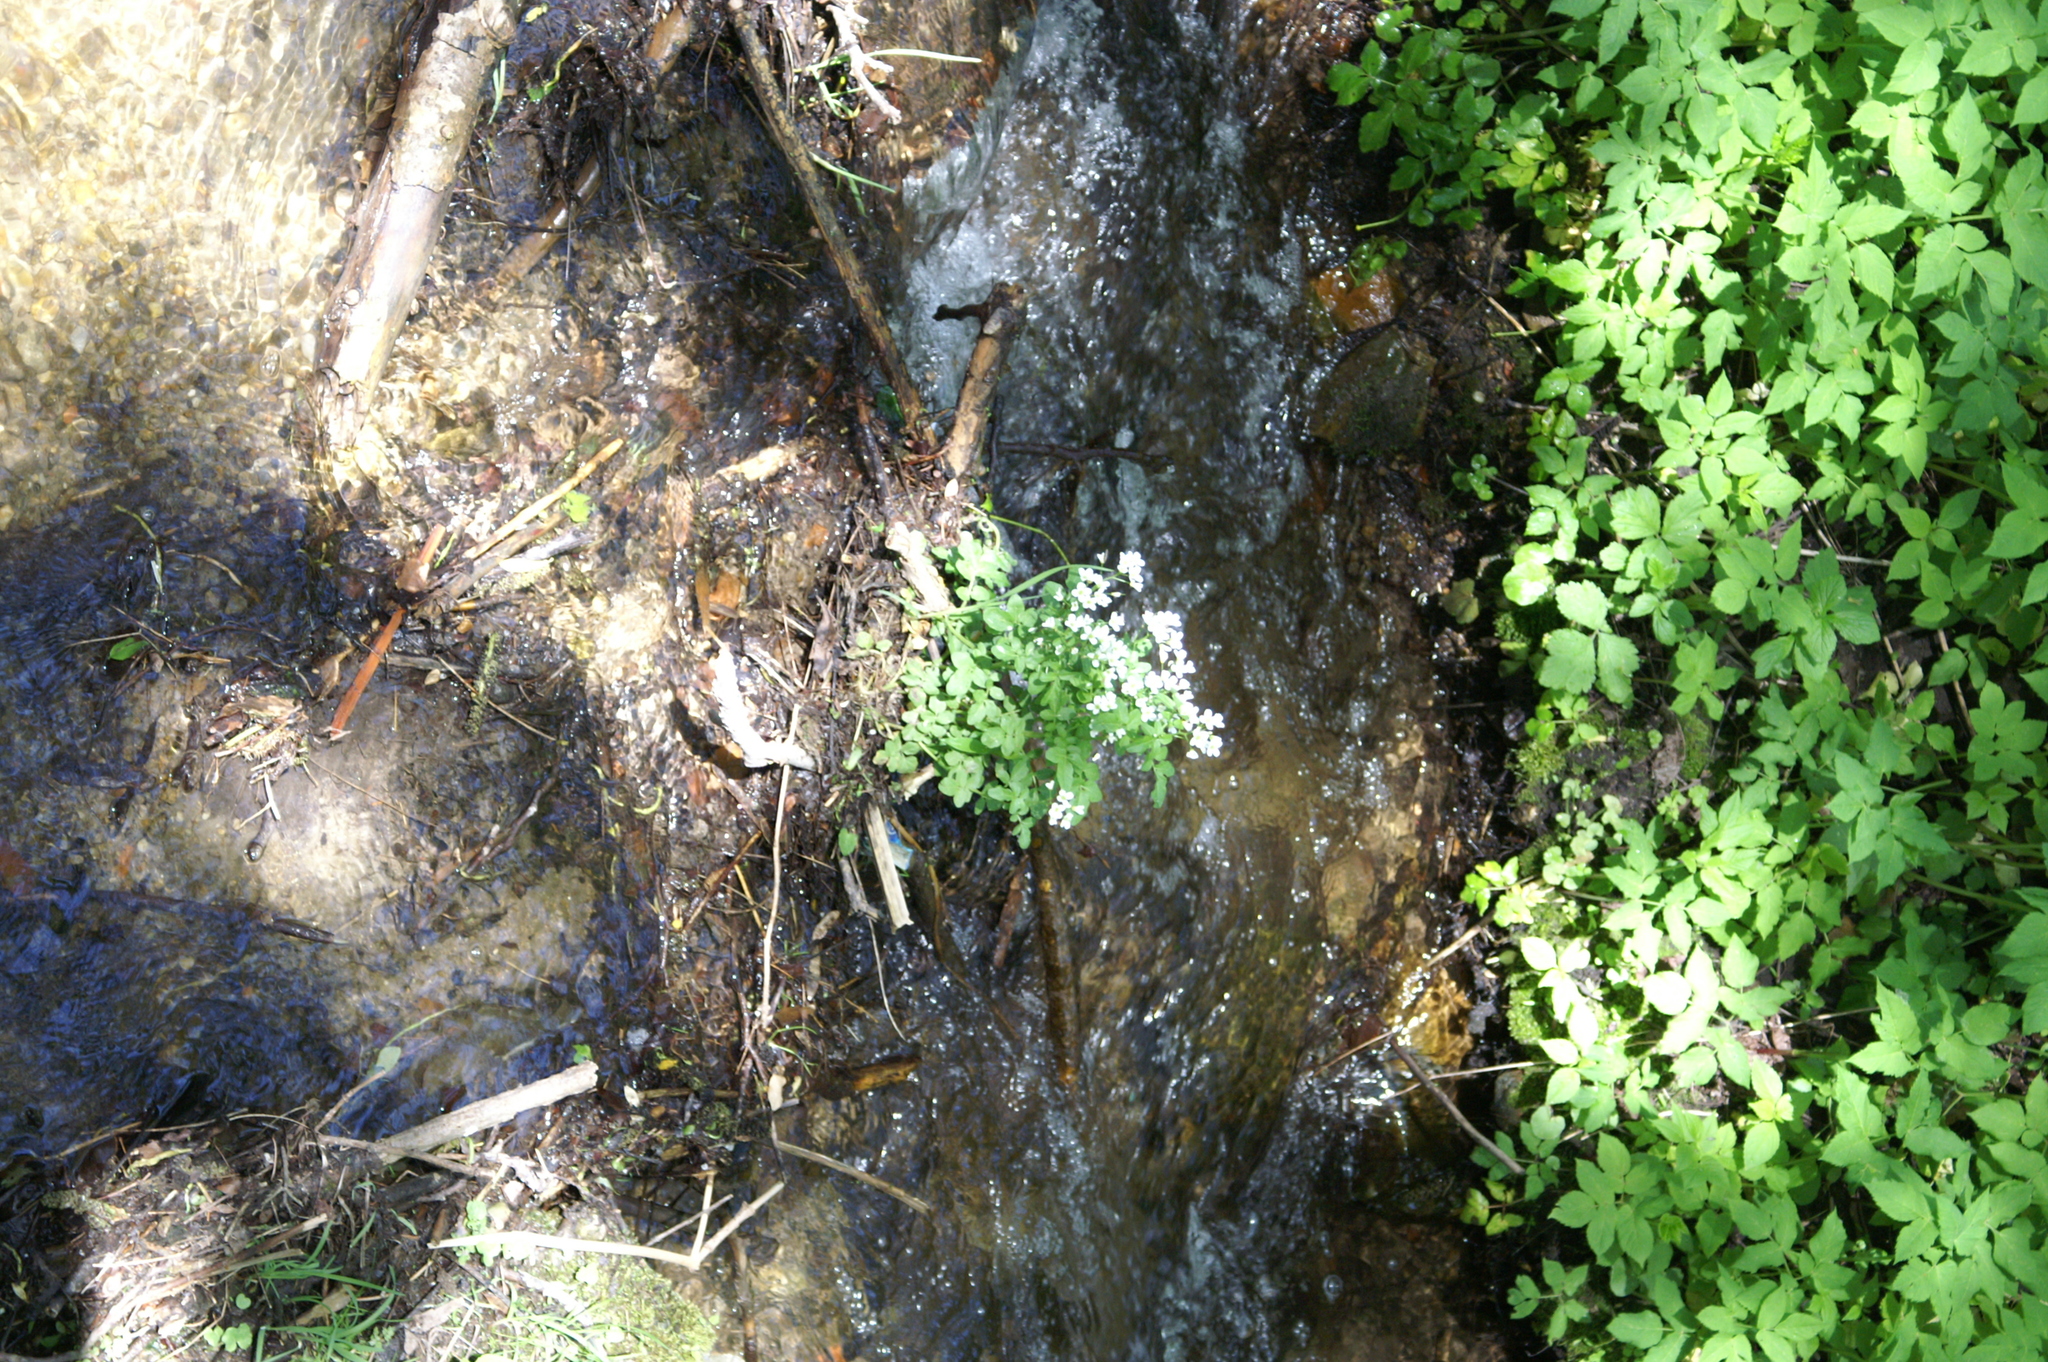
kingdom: Plantae
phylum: Tracheophyta
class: Magnoliopsida
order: Brassicales
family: Brassicaceae
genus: Cardamine
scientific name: Cardamine amara
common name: Large bitter-cress
